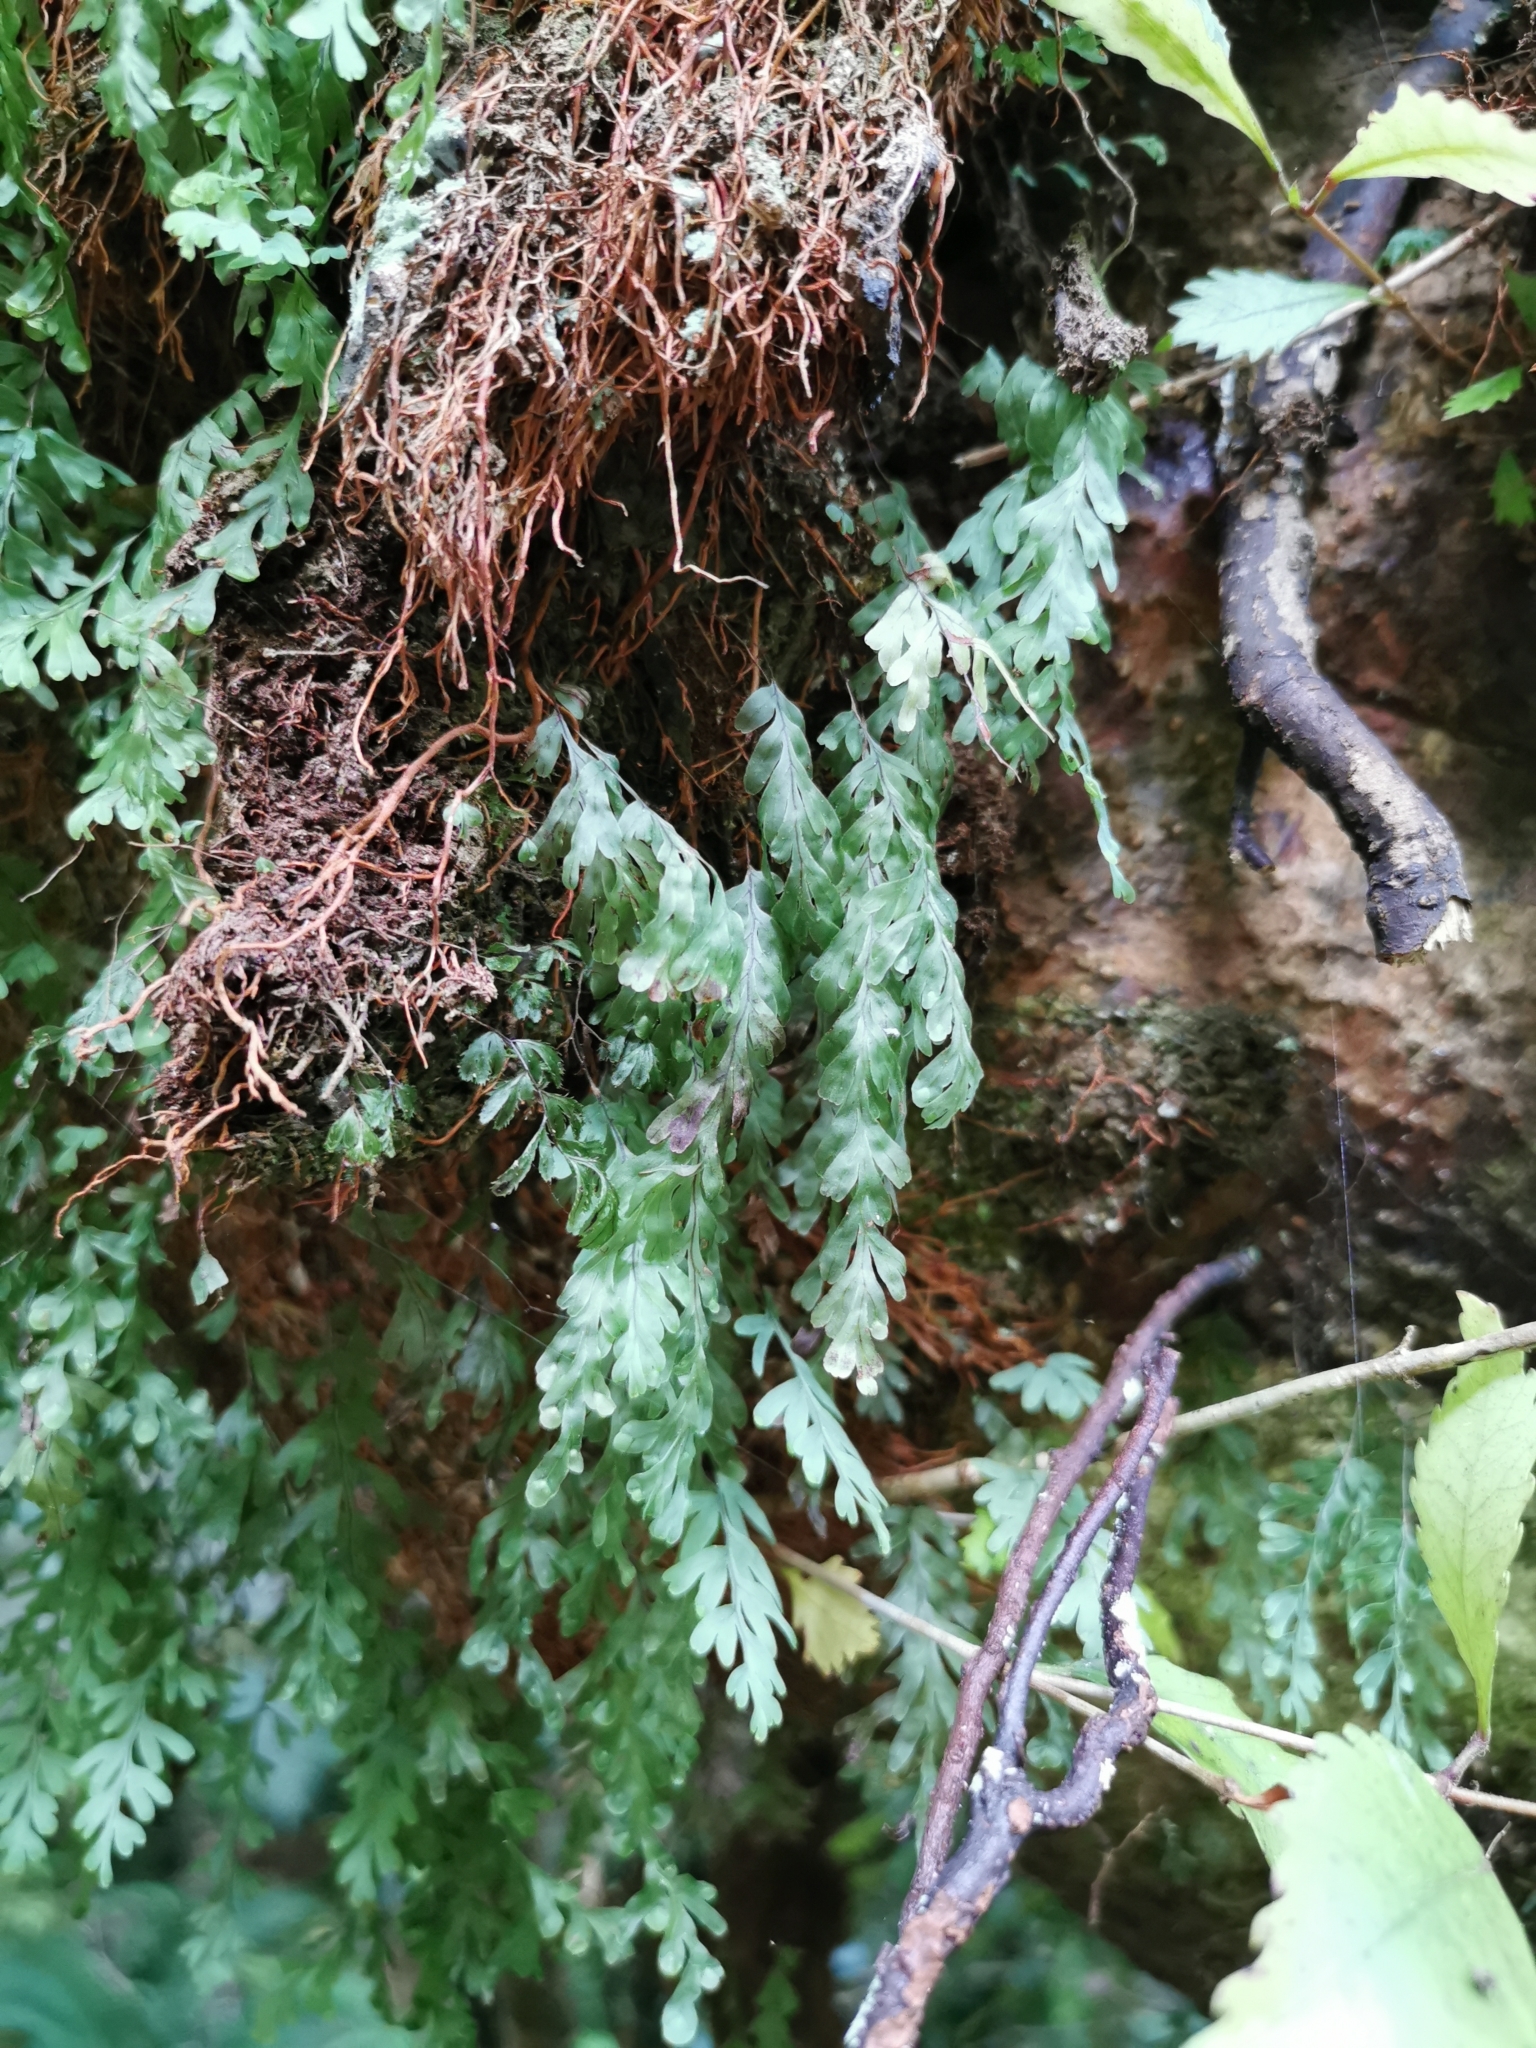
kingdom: Plantae
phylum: Tracheophyta
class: Polypodiopsida
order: Hymenophyllales
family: Hymenophyllaceae
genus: Hymenophyllum
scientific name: Hymenophyllum rarum
